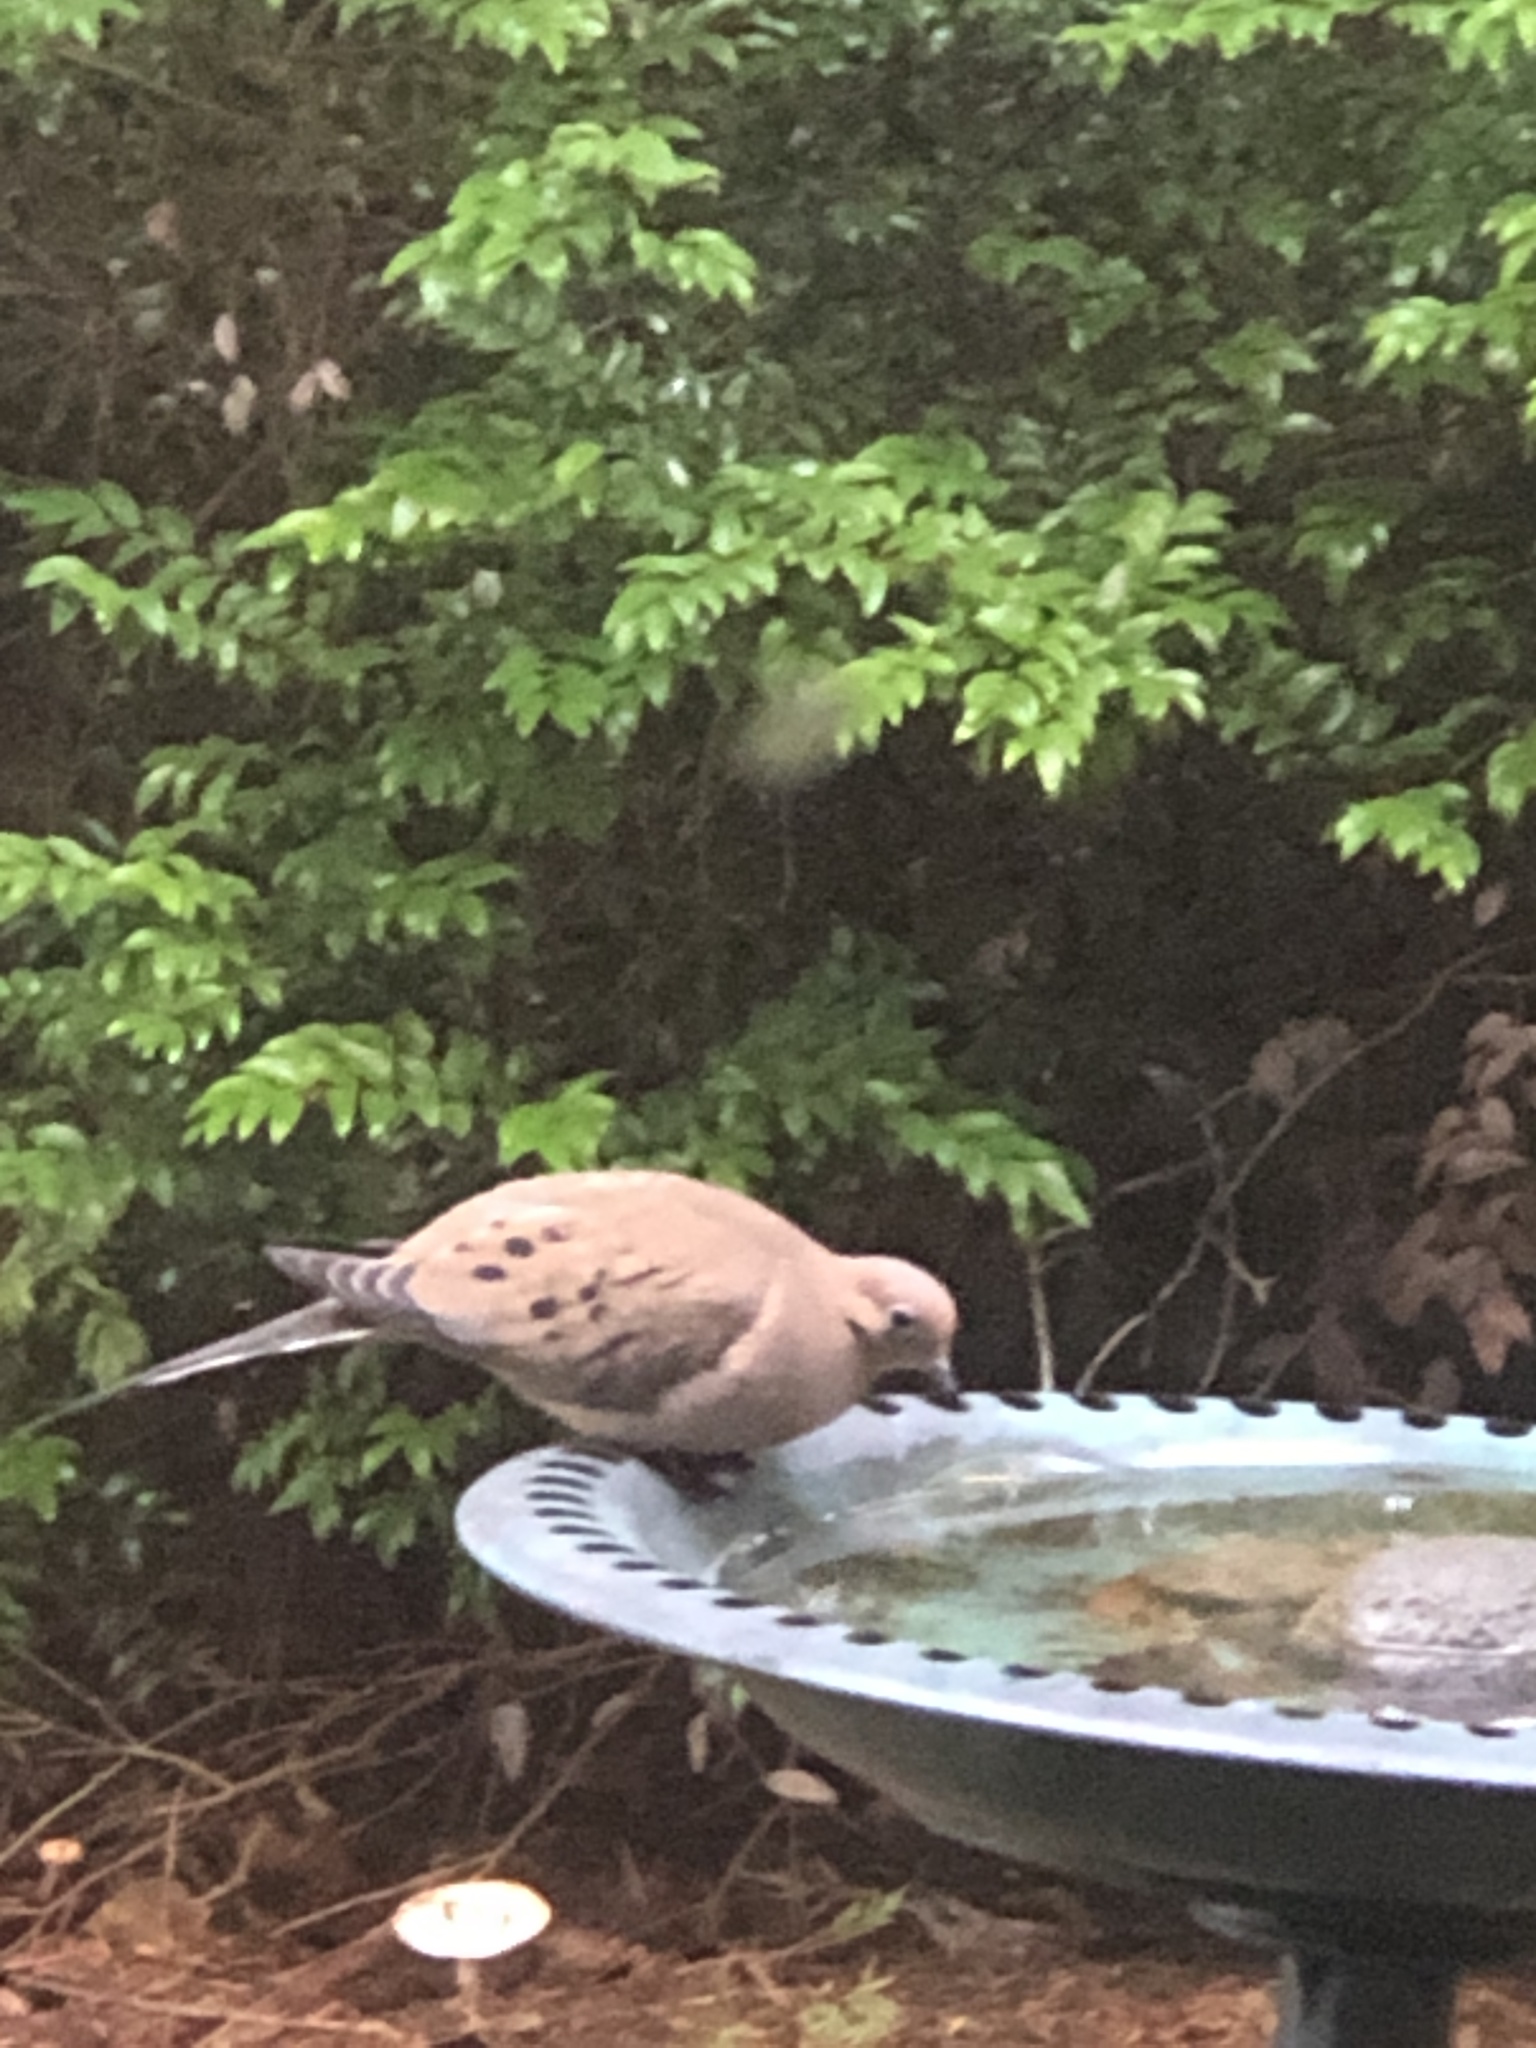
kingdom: Animalia
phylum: Chordata
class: Aves
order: Columbiformes
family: Columbidae
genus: Zenaida
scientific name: Zenaida macroura
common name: Mourning dove
